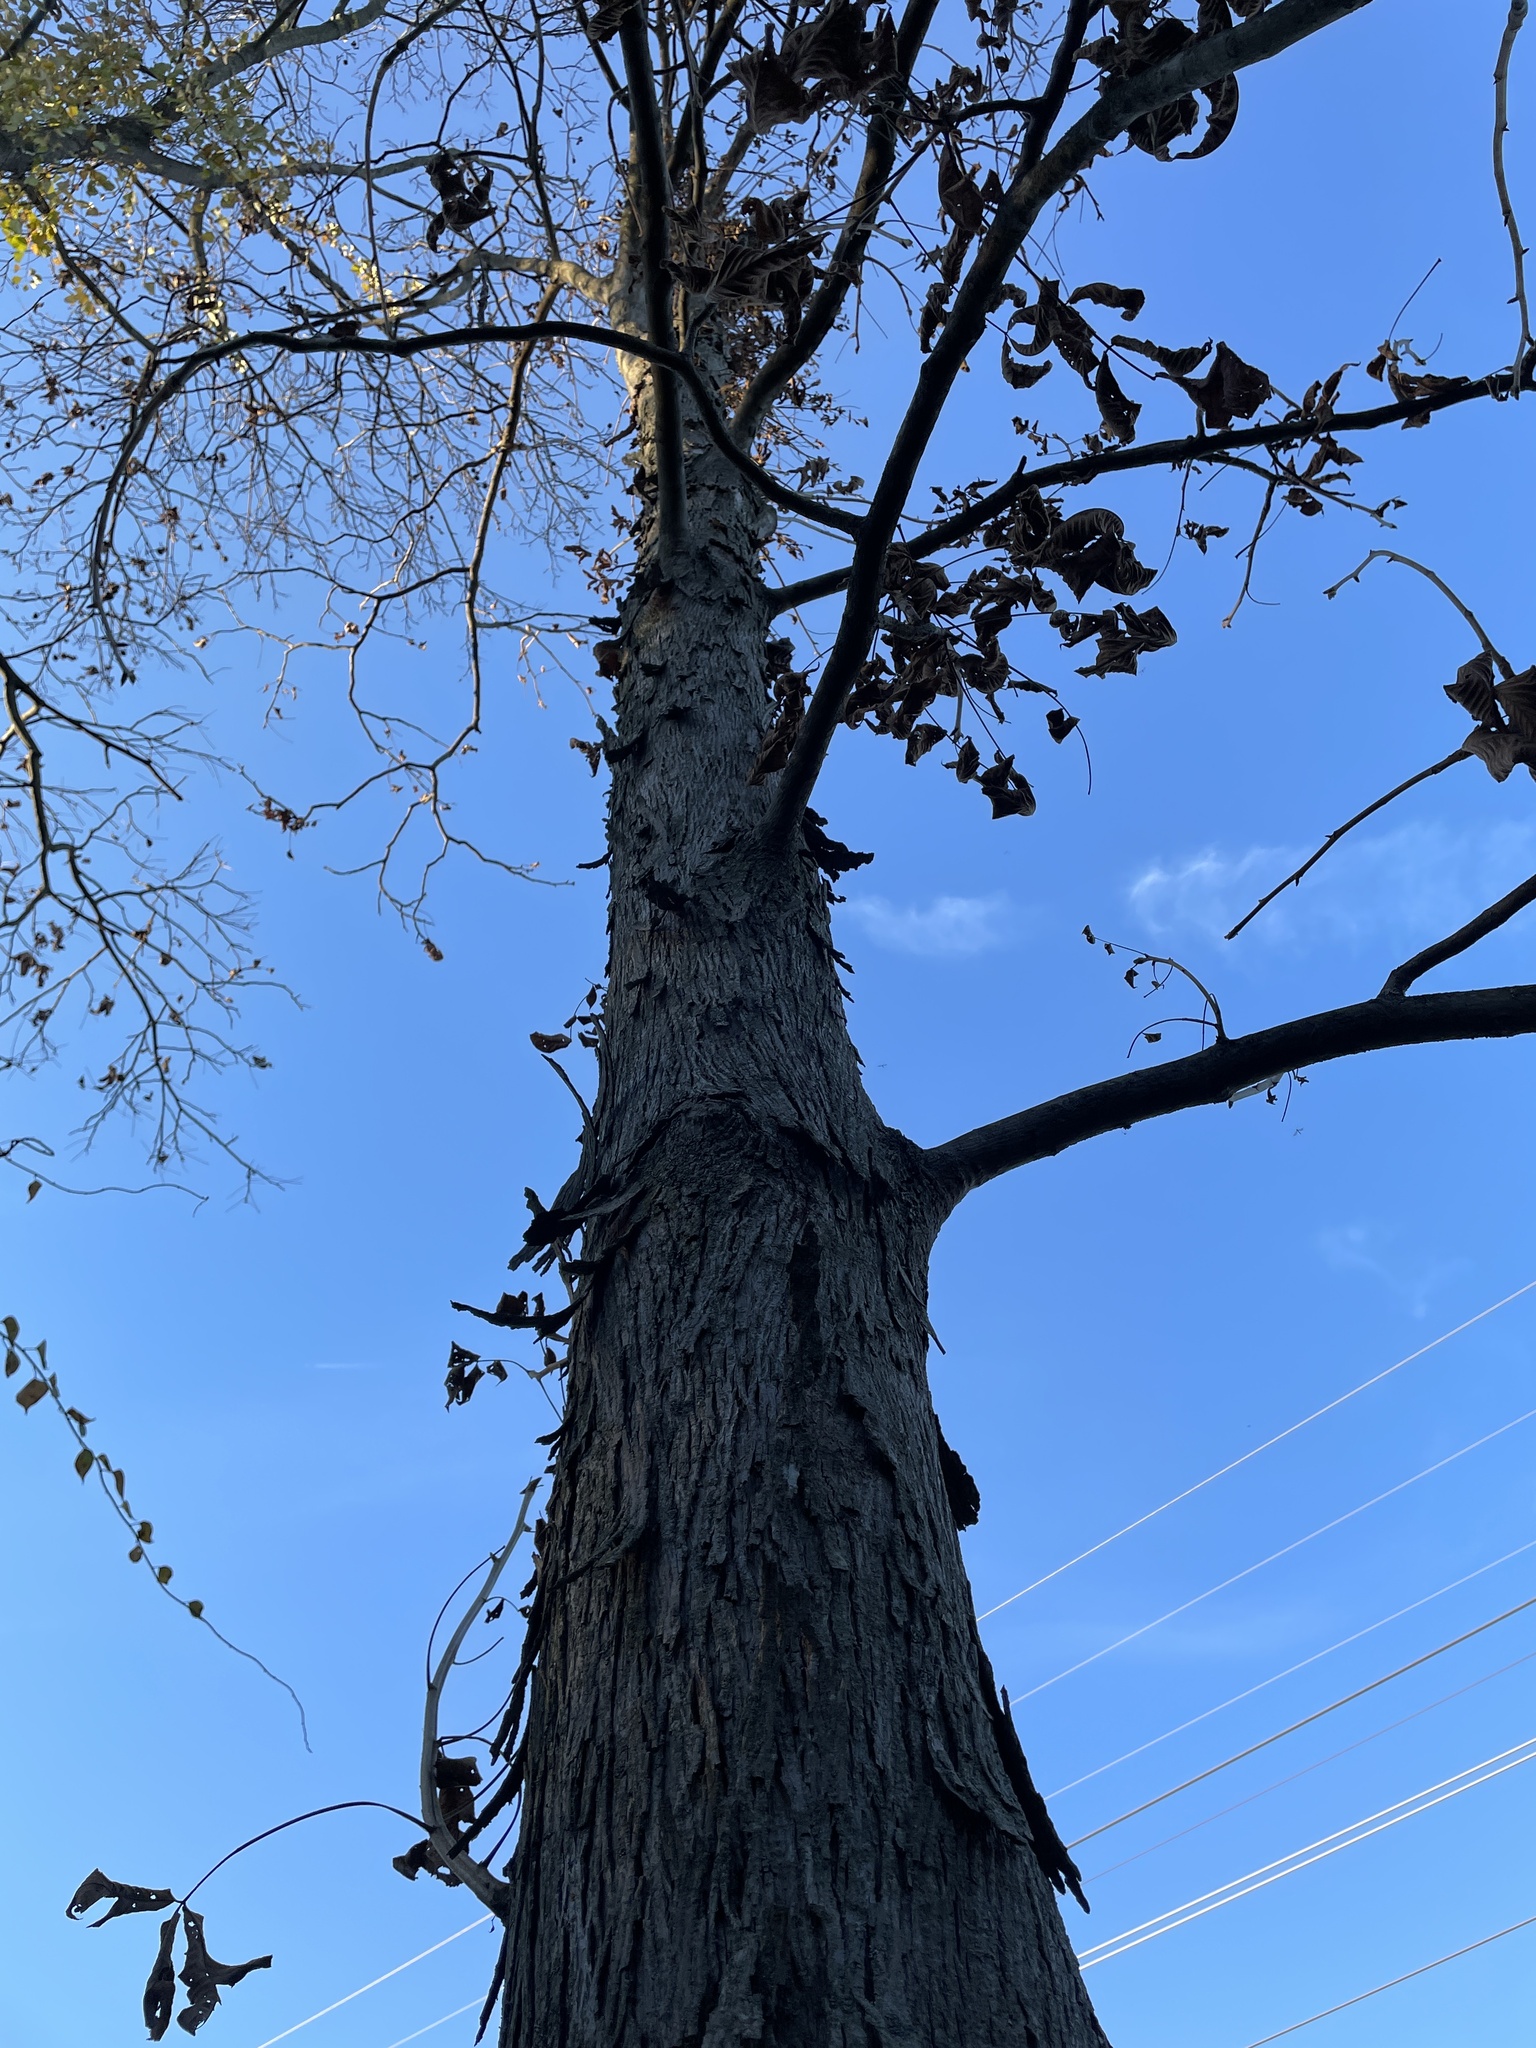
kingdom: Plantae
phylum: Tracheophyta
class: Magnoliopsida
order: Fagales
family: Juglandaceae
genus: Carya
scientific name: Carya ovata
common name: Shagbark hickory
